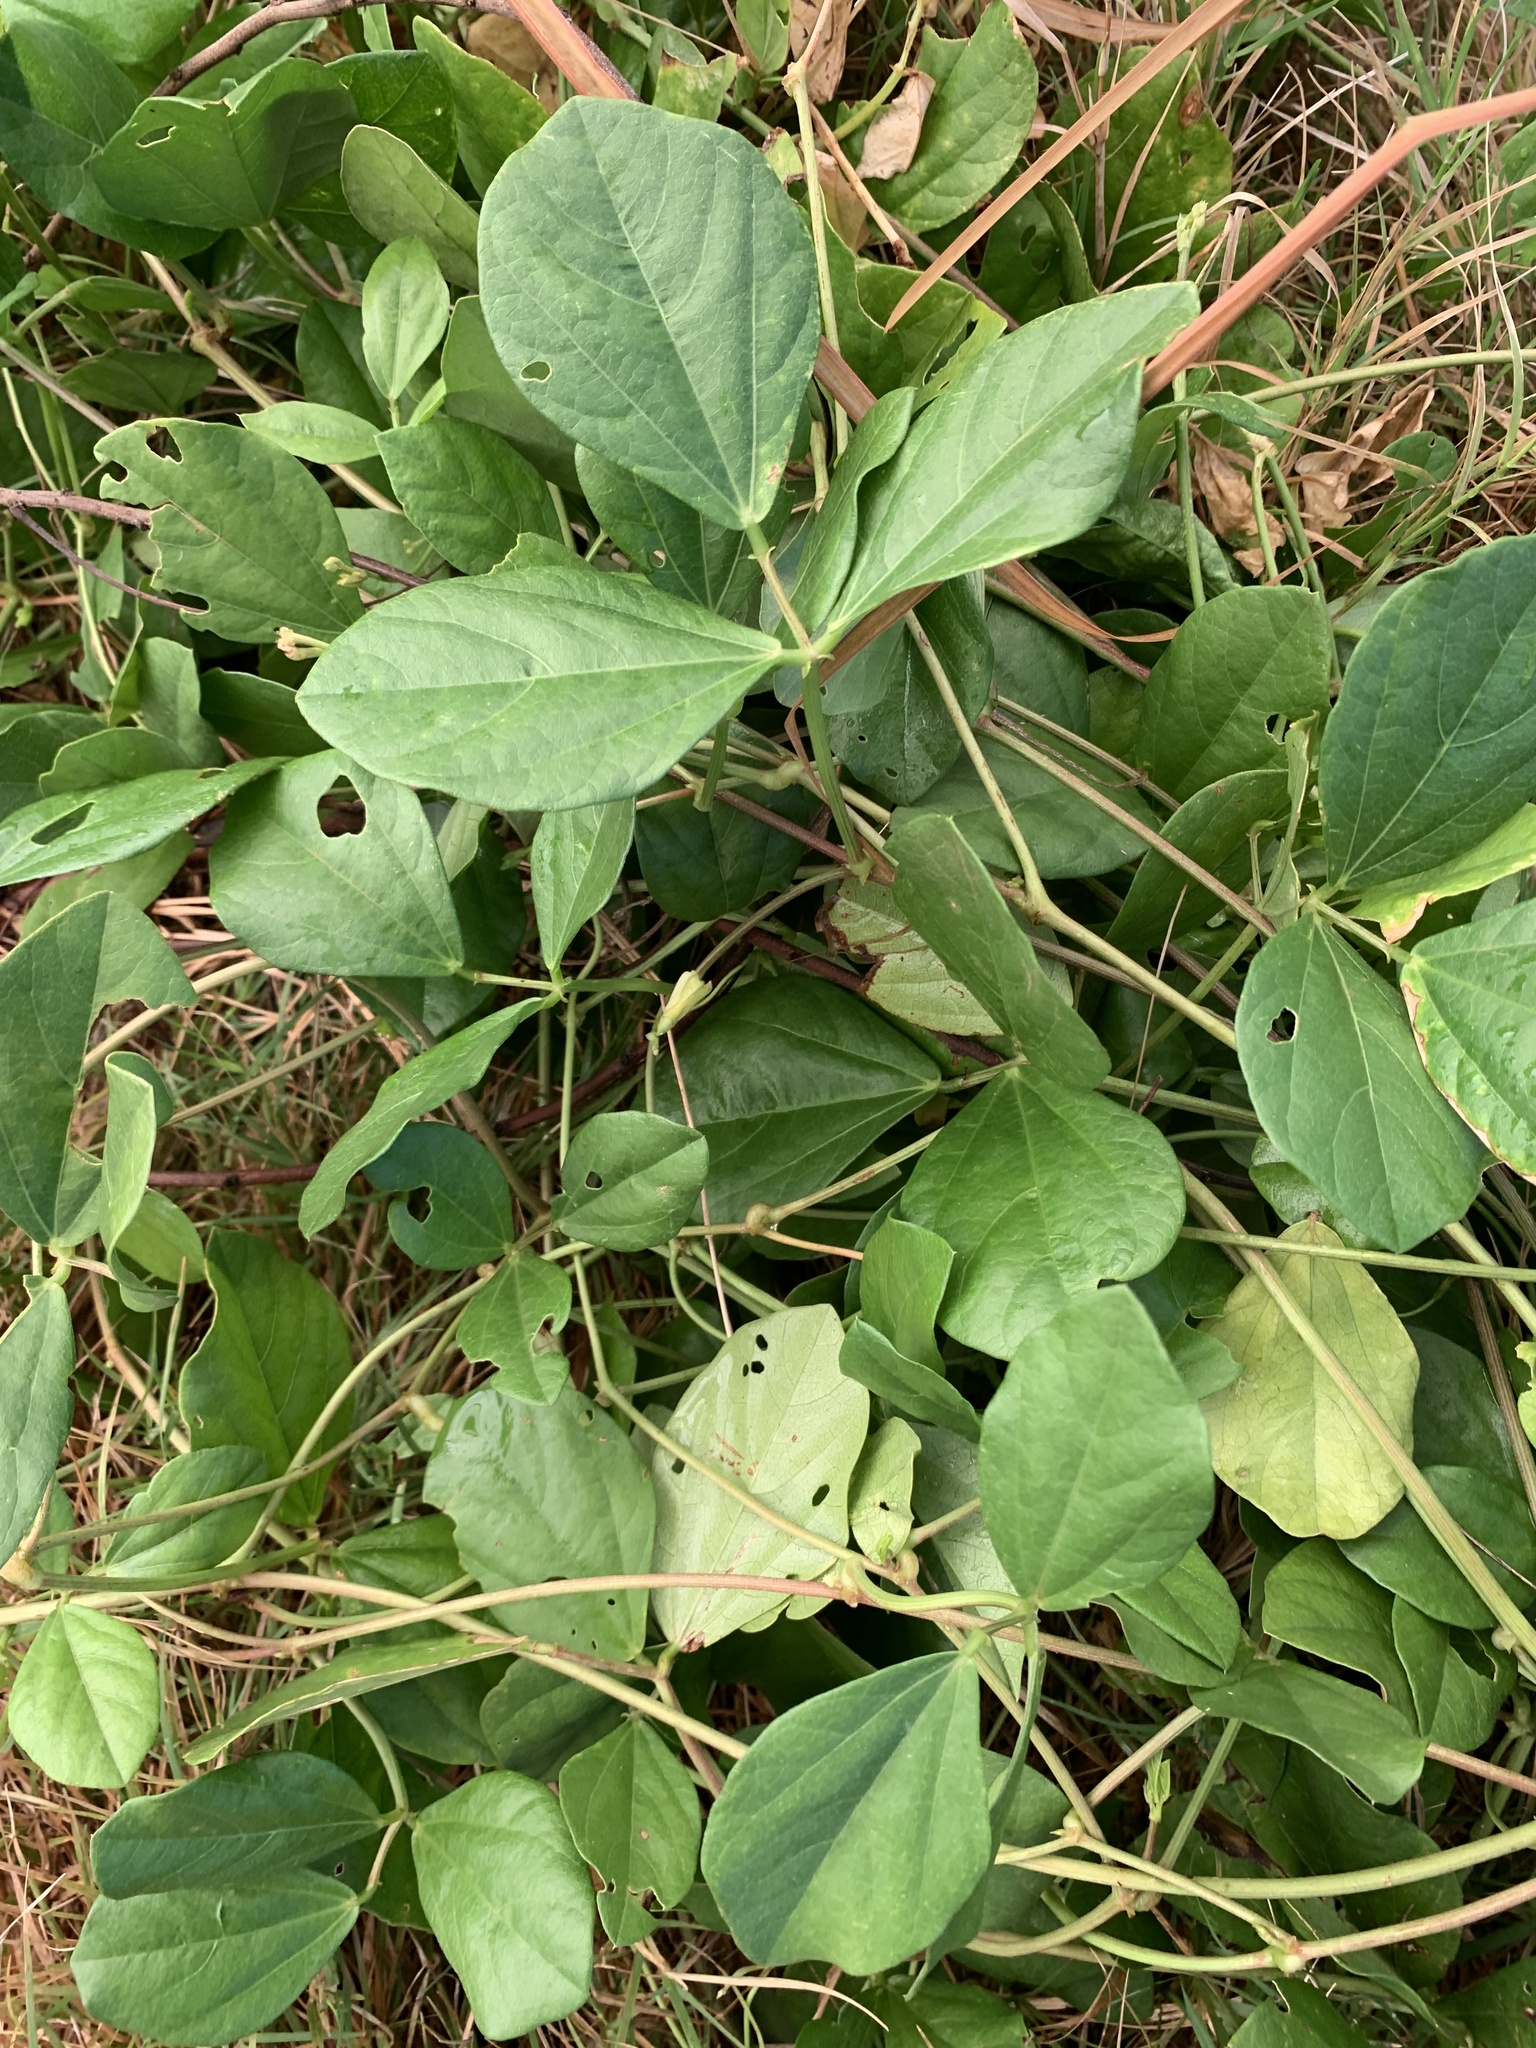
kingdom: Plantae
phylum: Tracheophyta
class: Magnoliopsida
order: Fabales
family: Fabaceae
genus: Vigna
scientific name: Vigna marina
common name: Dune-bean
